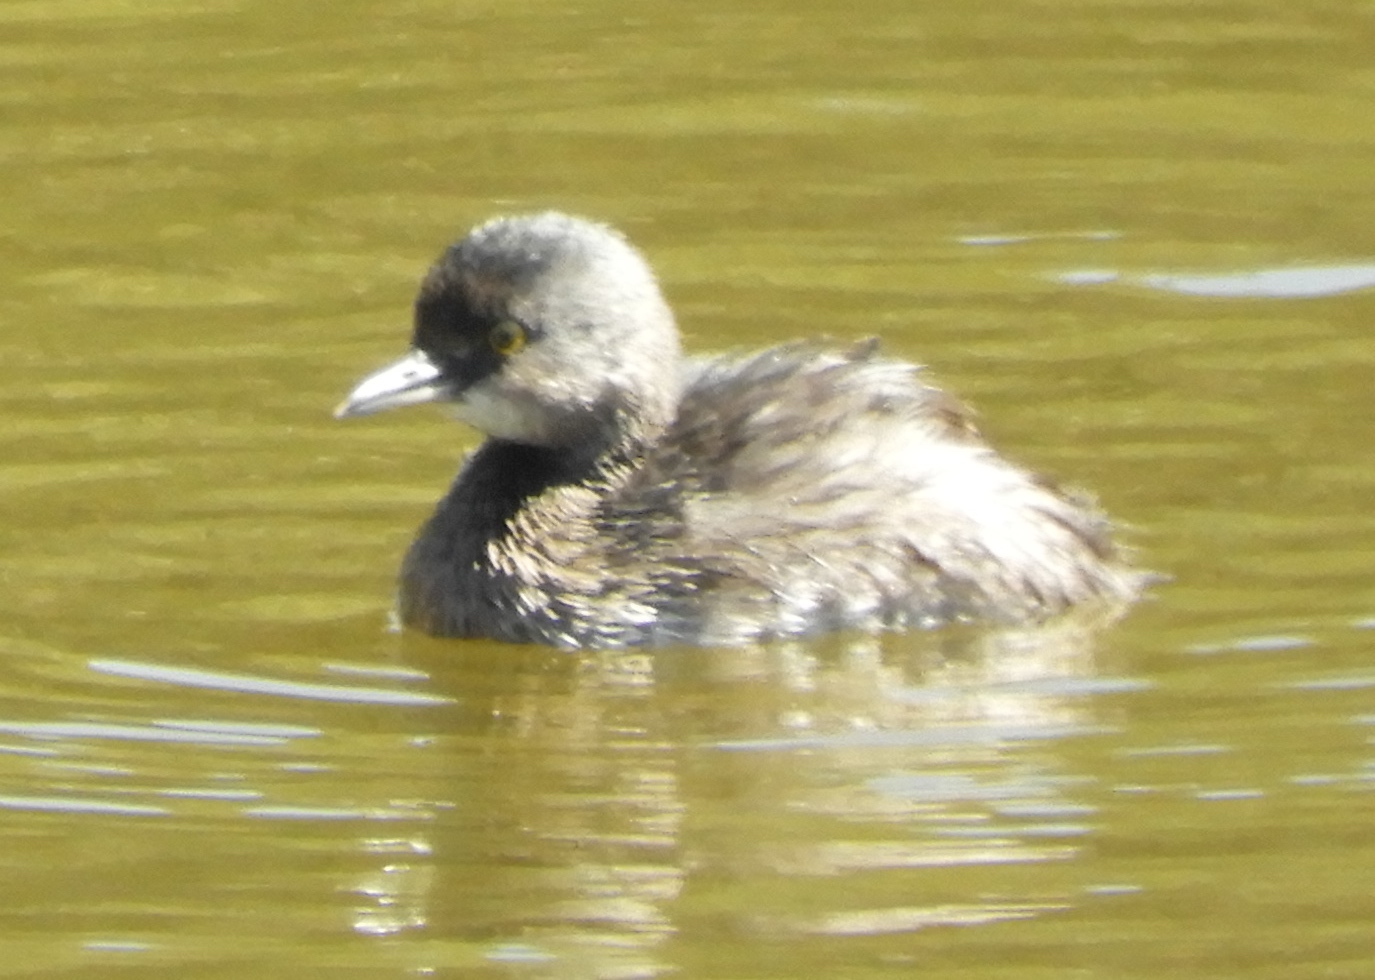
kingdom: Animalia
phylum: Chordata
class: Aves
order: Podicipediformes
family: Podicipedidae
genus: Tachybaptus
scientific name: Tachybaptus dominicus
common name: Least grebe
